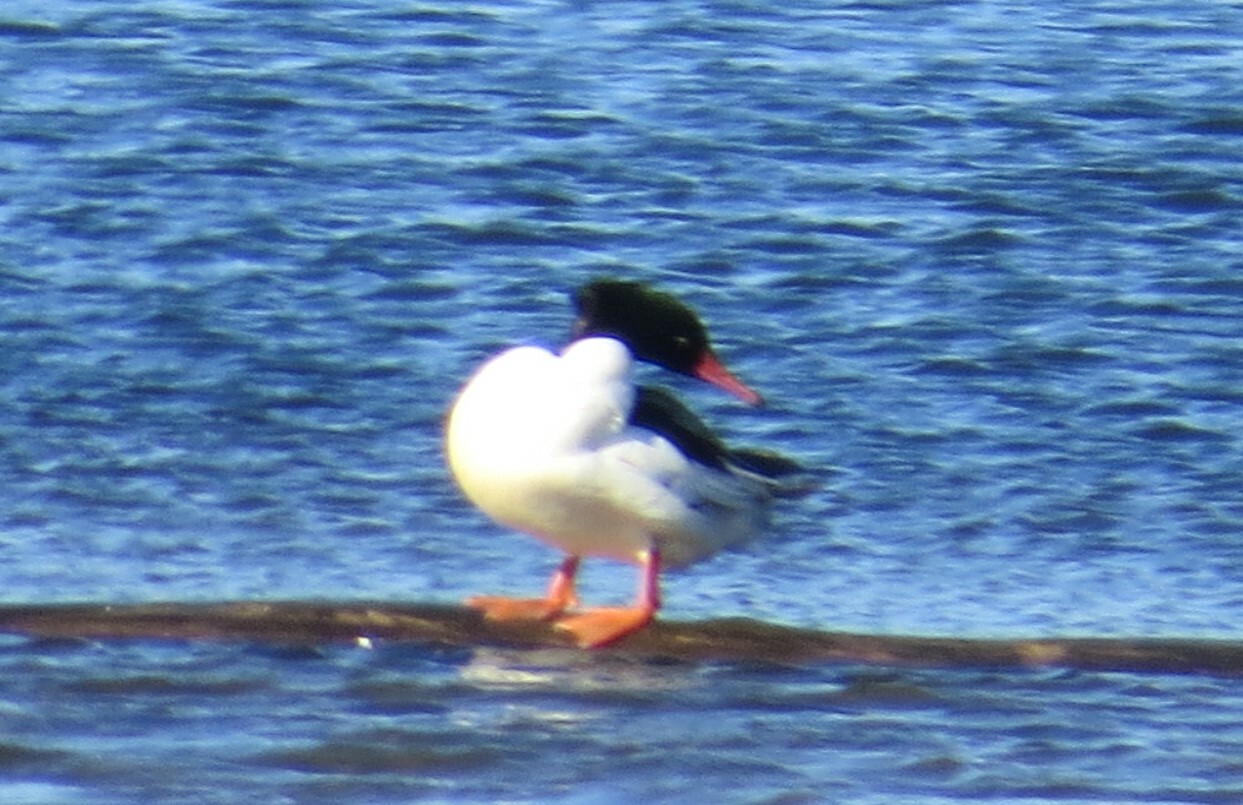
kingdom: Animalia
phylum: Chordata
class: Aves
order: Anseriformes
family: Anatidae
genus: Mergus
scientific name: Mergus merganser
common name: Common merganser
